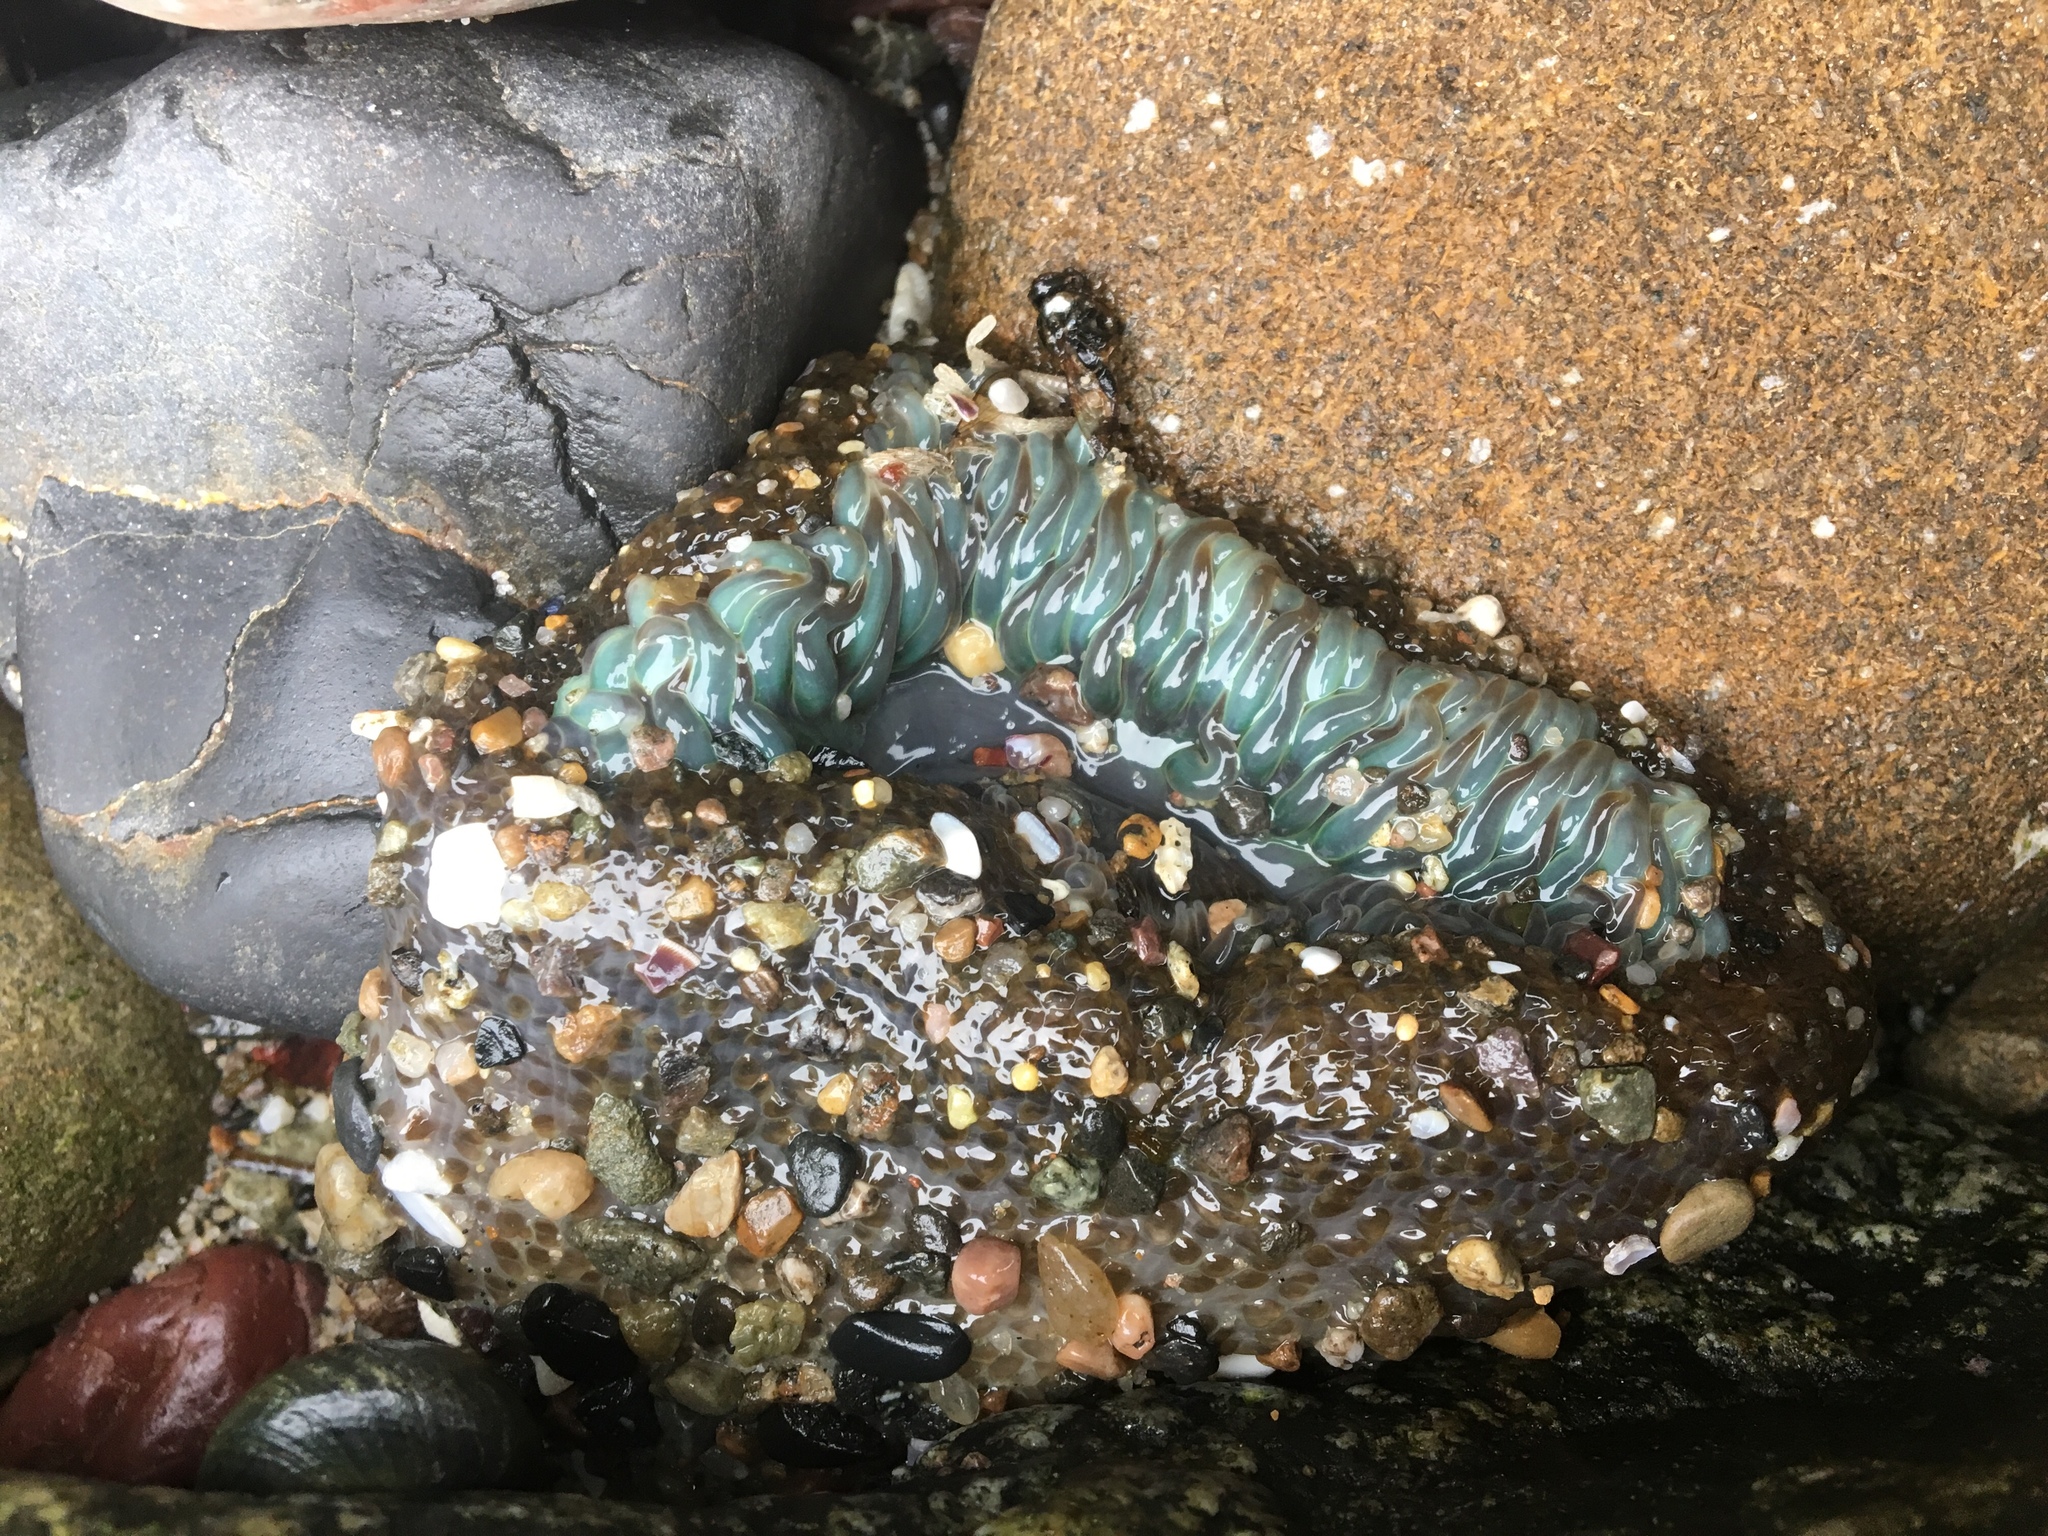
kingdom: Animalia
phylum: Cnidaria
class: Anthozoa
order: Actiniaria
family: Actiniidae
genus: Anthopleura
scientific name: Anthopleura sola
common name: Sun anemone
